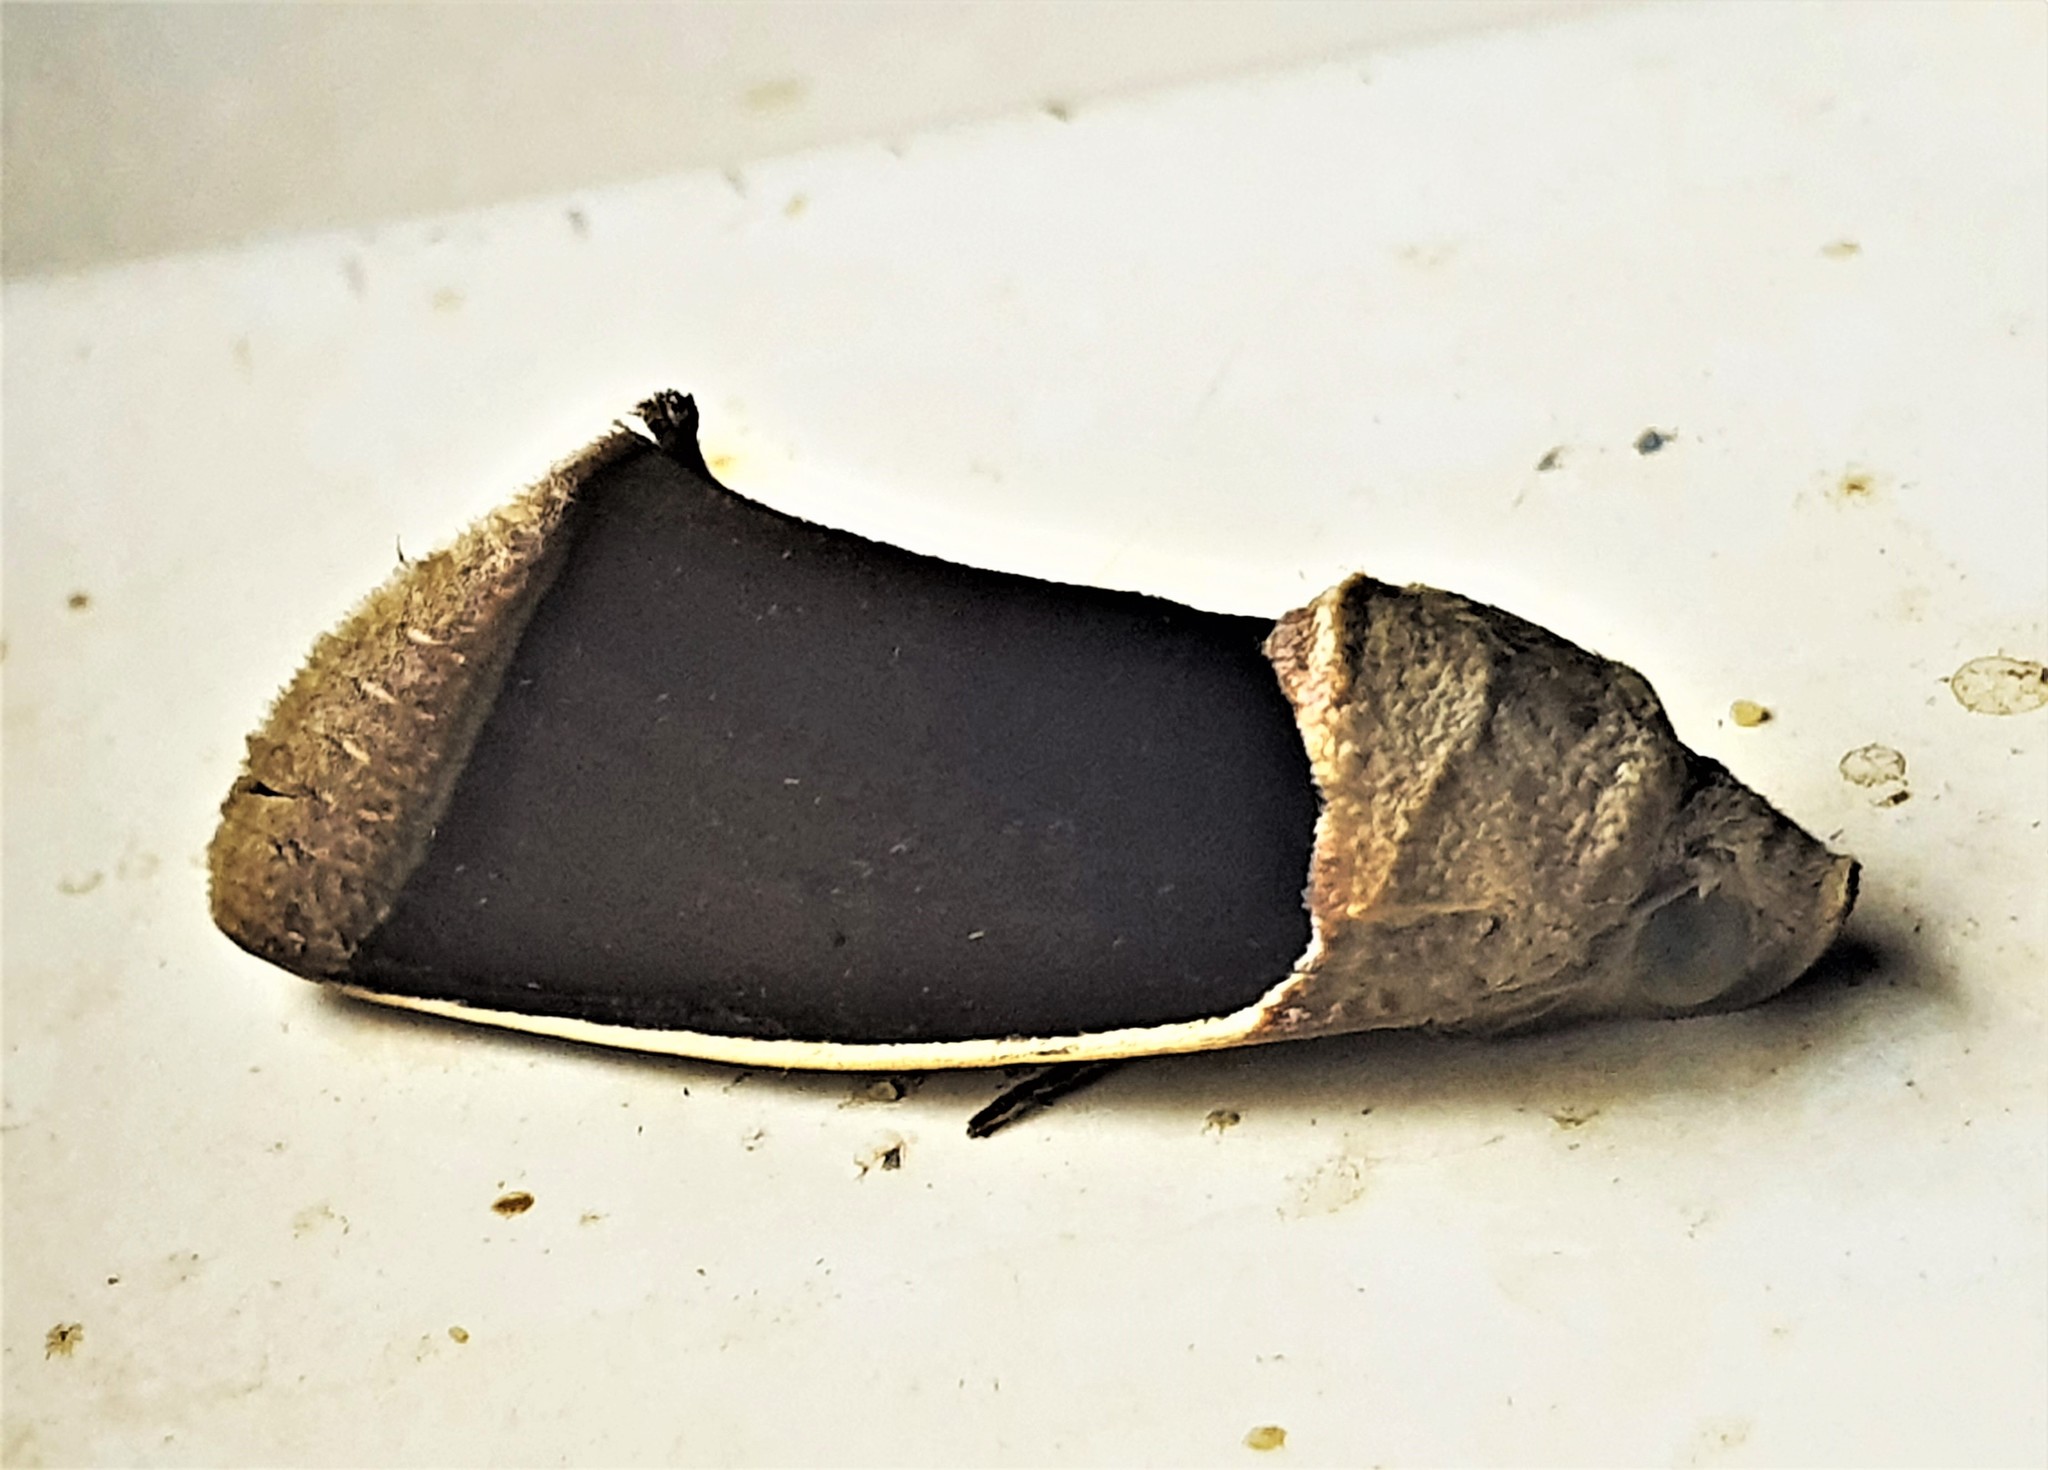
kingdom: Animalia
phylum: Arthropoda
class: Insecta
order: Lepidoptera
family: Erebidae
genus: Gonodonta
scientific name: Gonodonta syrna
